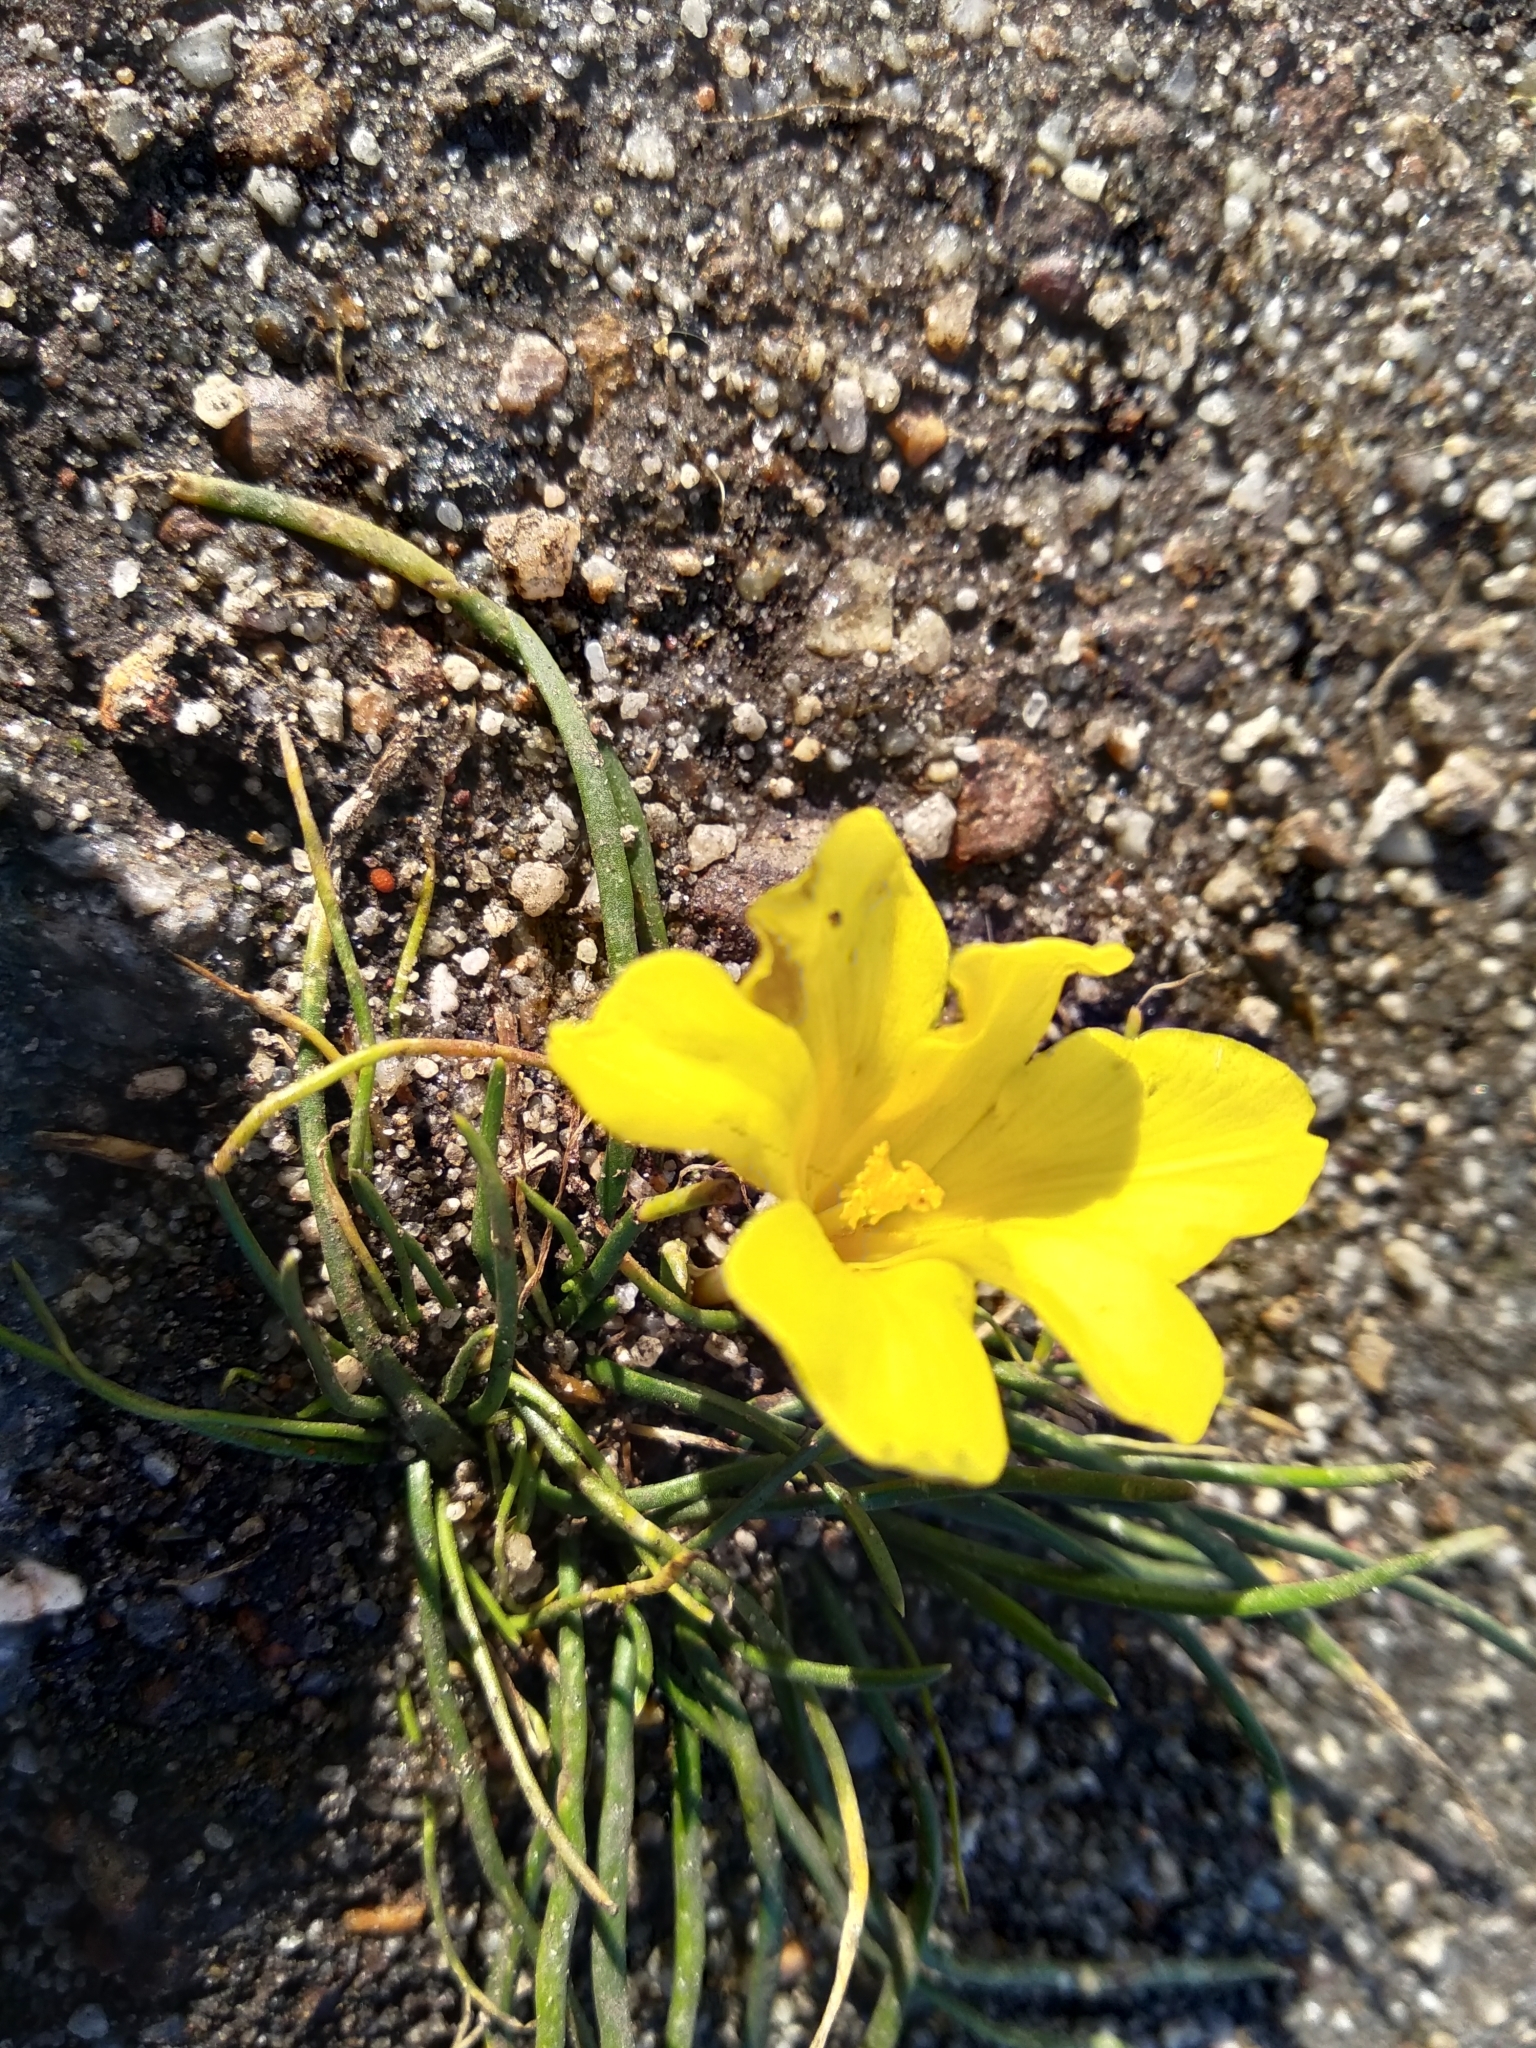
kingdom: Plantae
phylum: Tracheophyta
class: Liliopsida
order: Asparagales
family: Iridaceae
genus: Moraea
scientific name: Moraea fugacissima
